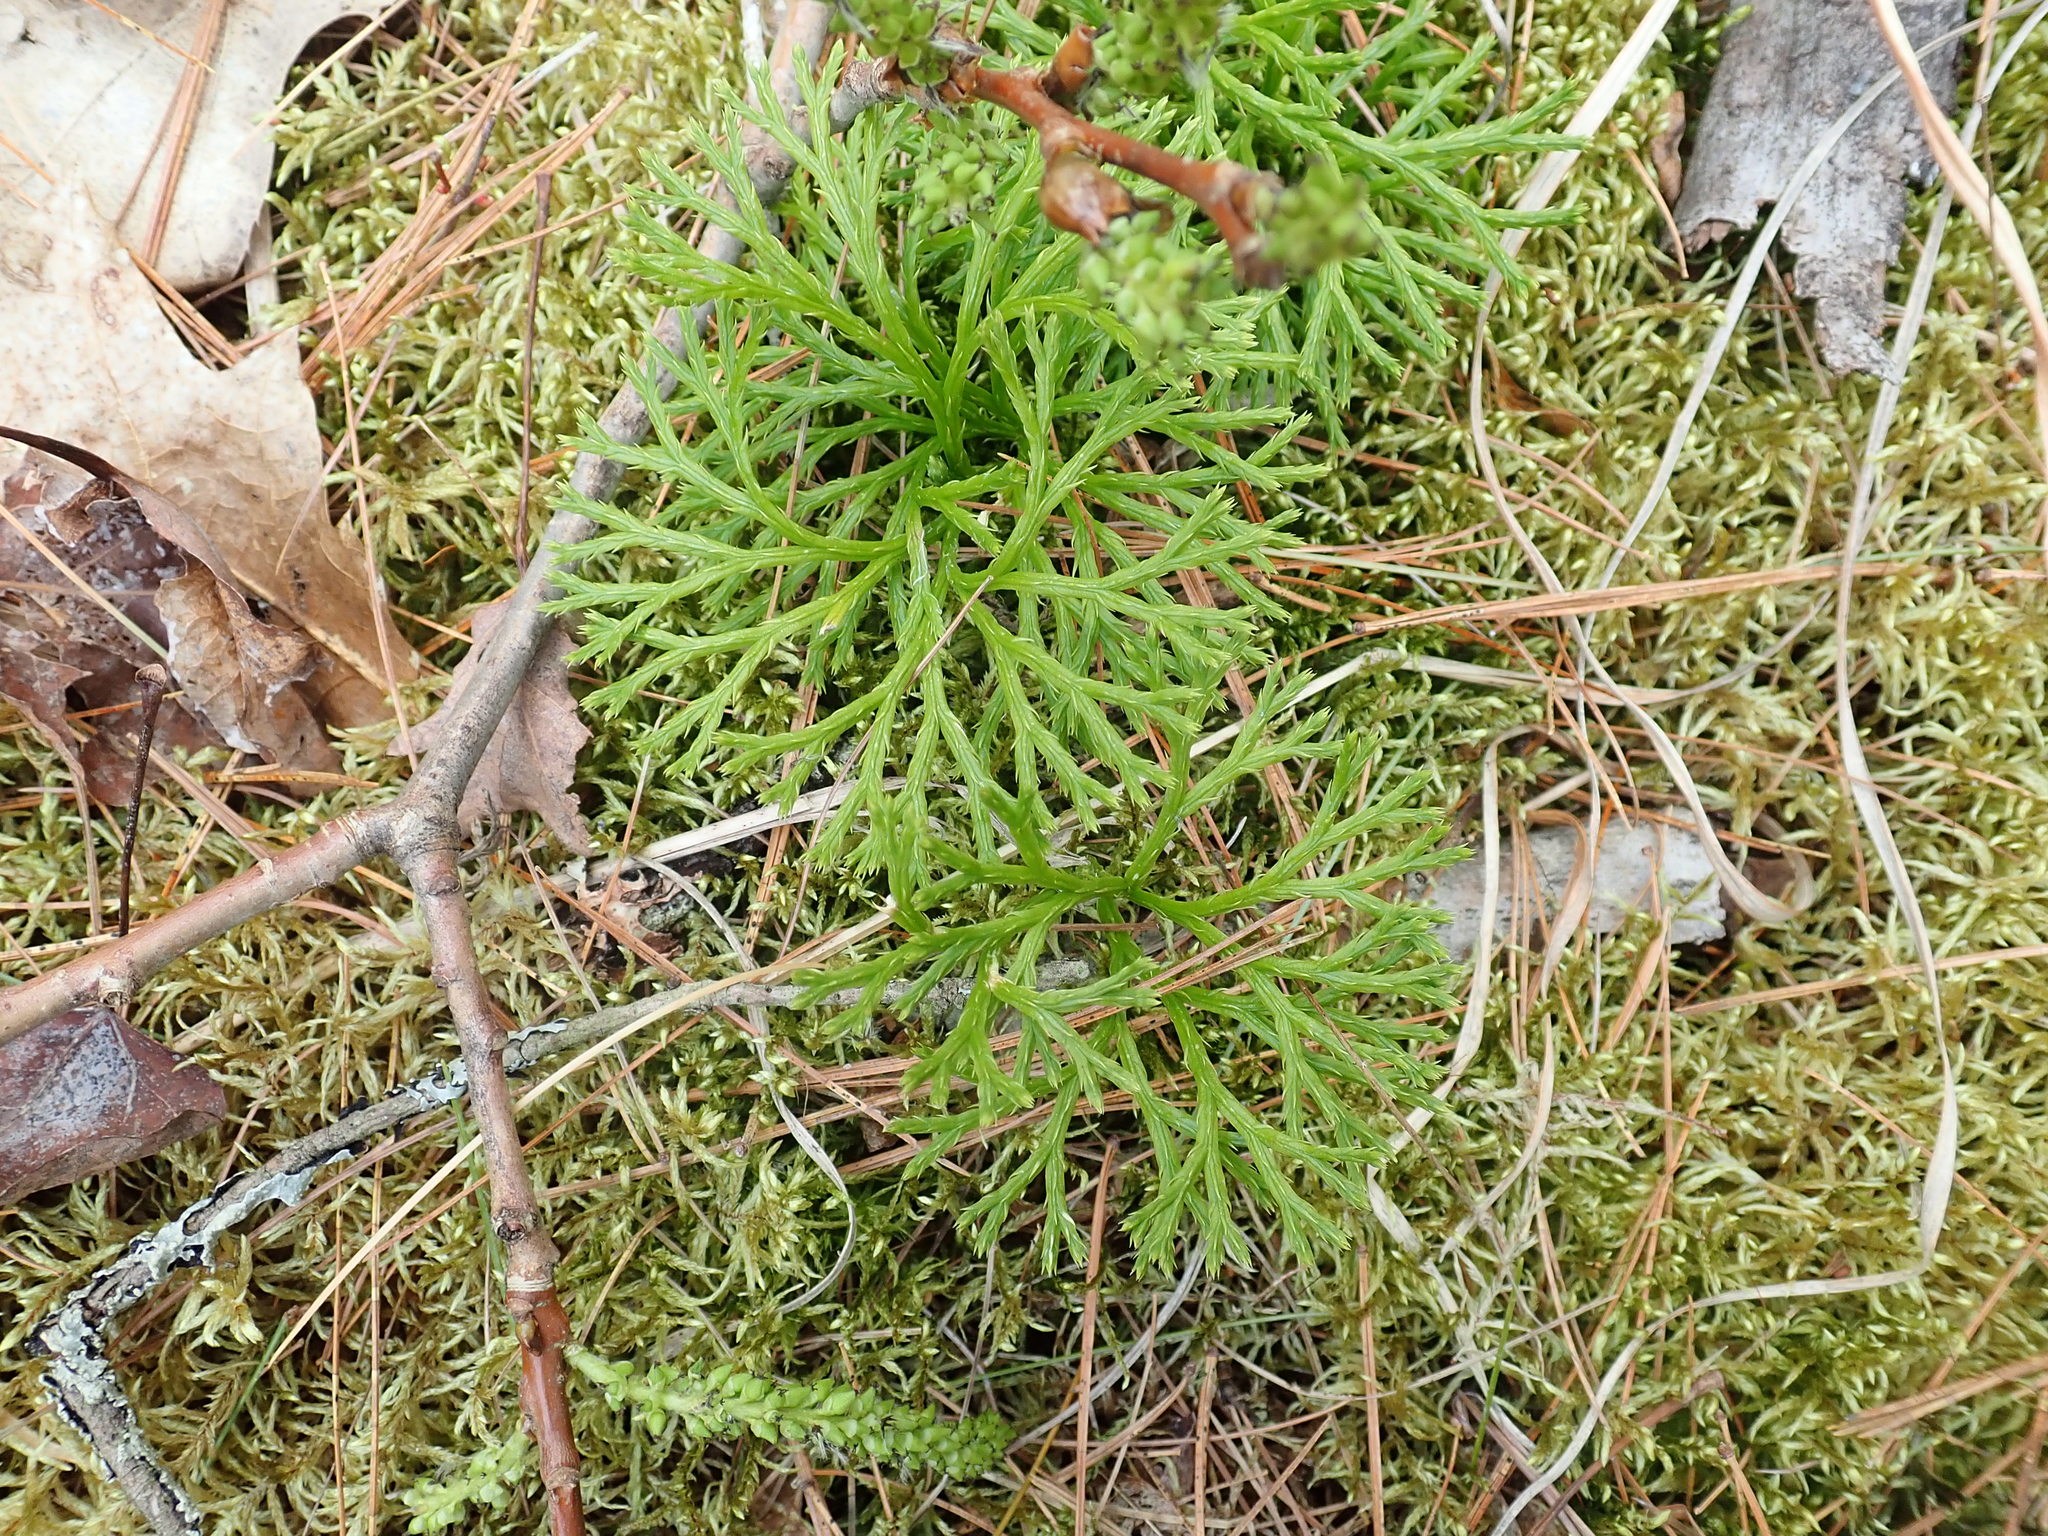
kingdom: Plantae
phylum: Tracheophyta
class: Lycopodiopsida
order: Lycopodiales
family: Lycopodiaceae
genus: Diphasiastrum
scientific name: Diphasiastrum digitatum
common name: Southern running-pine
